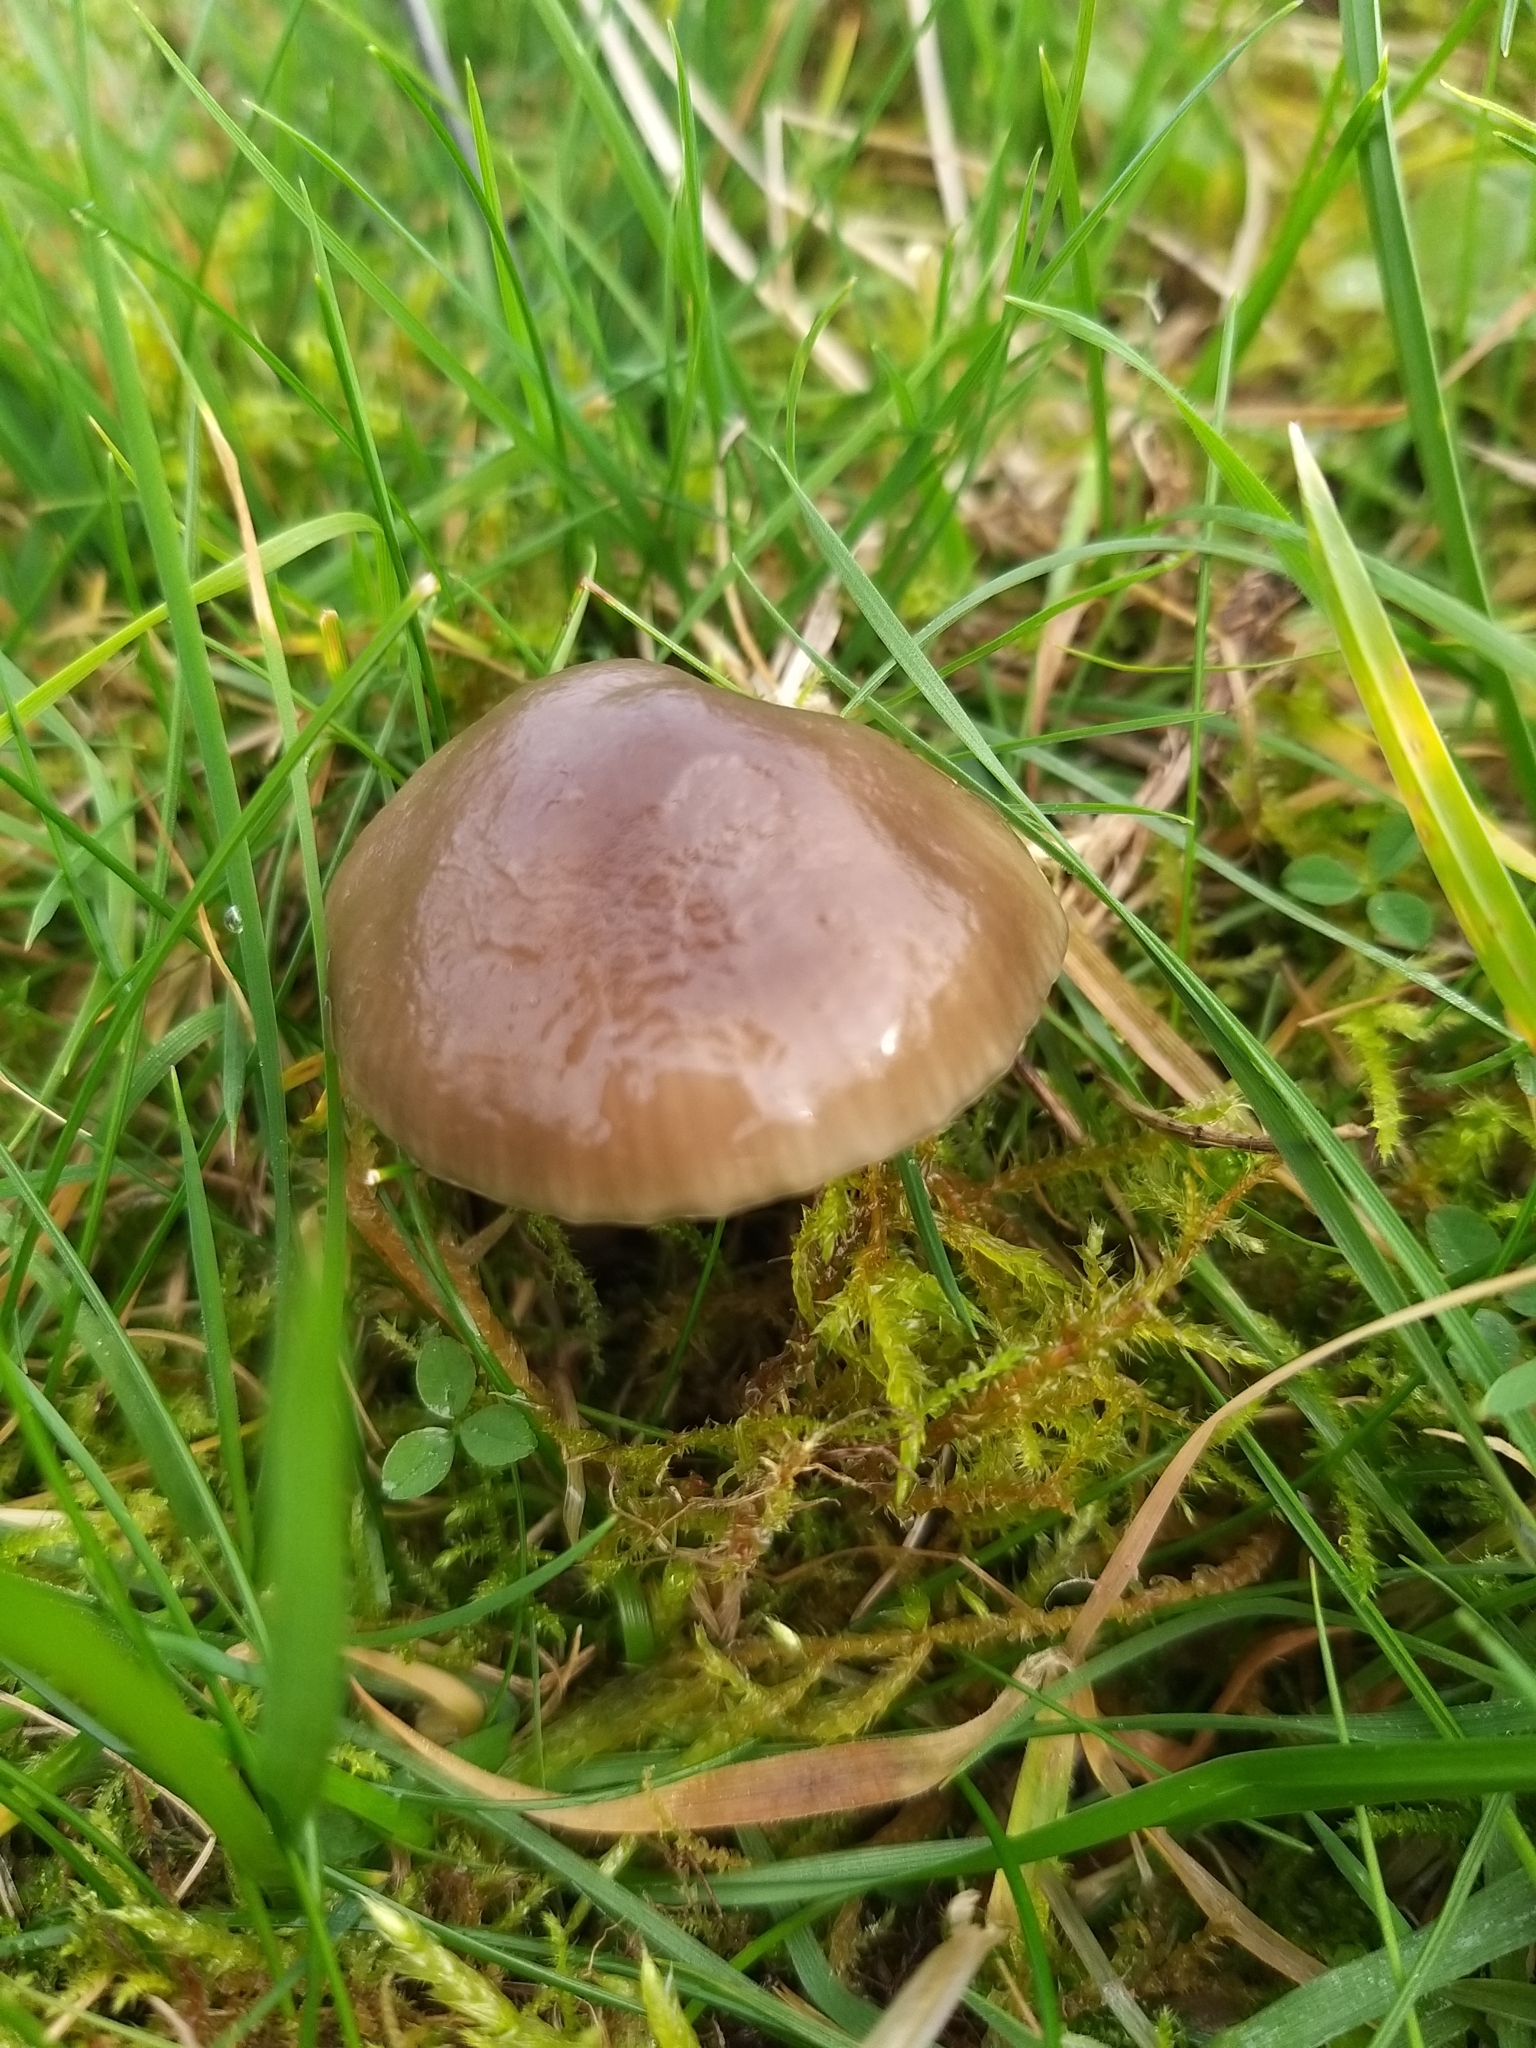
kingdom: Fungi
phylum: Basidiomycota
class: Agaricomycetes
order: Agaricales
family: Hygrophoraceae
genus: Gliophorus
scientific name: Gliophorus irrigatus
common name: Slimy waxcap
